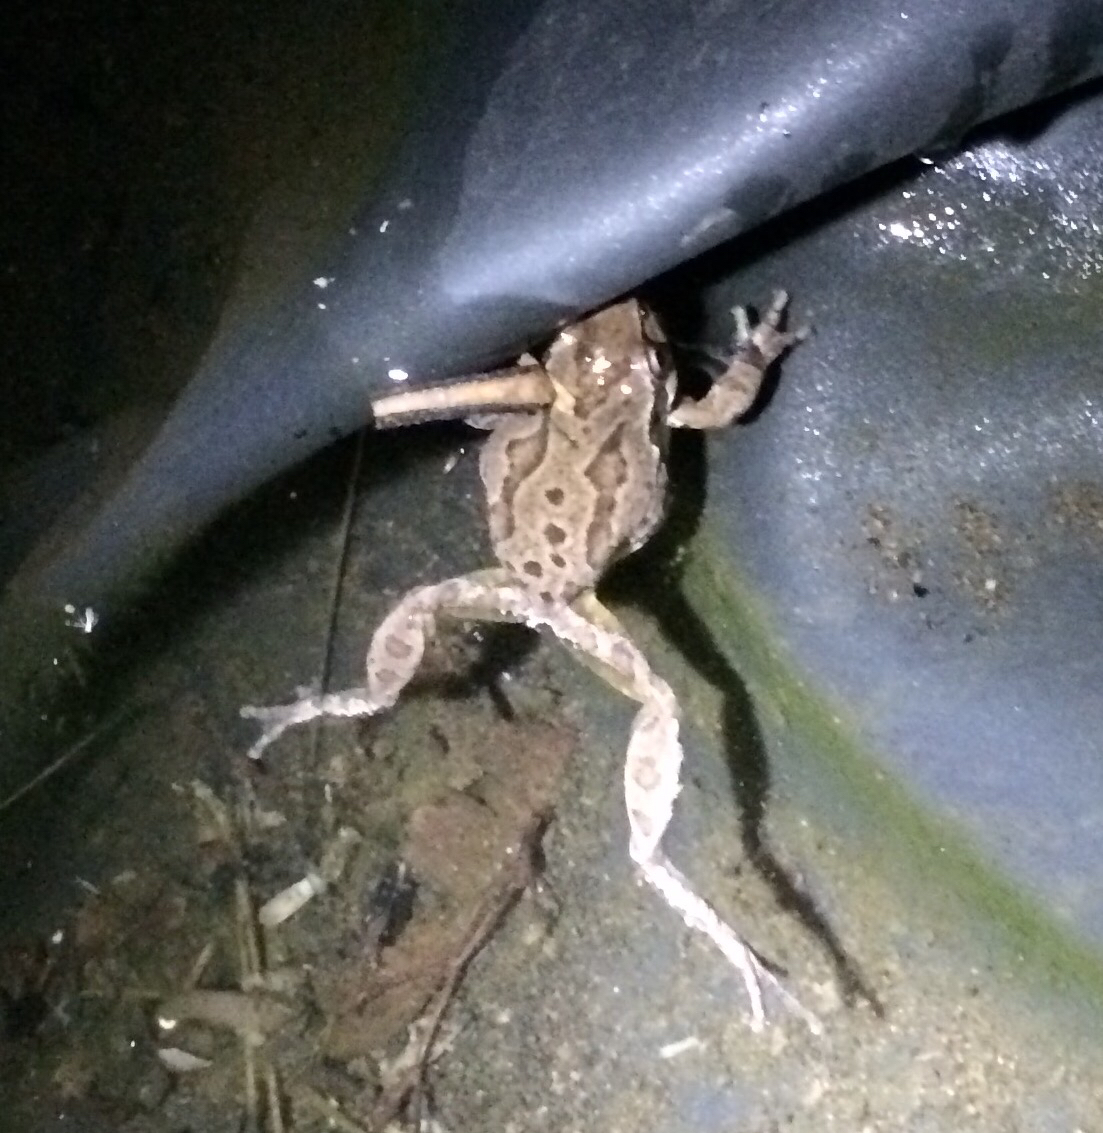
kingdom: Animalia
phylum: Chordata
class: Amphibia
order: Anura
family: Hylidae
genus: Pseudacris
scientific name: Pseudacris regilla
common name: Pacific chorus frog
